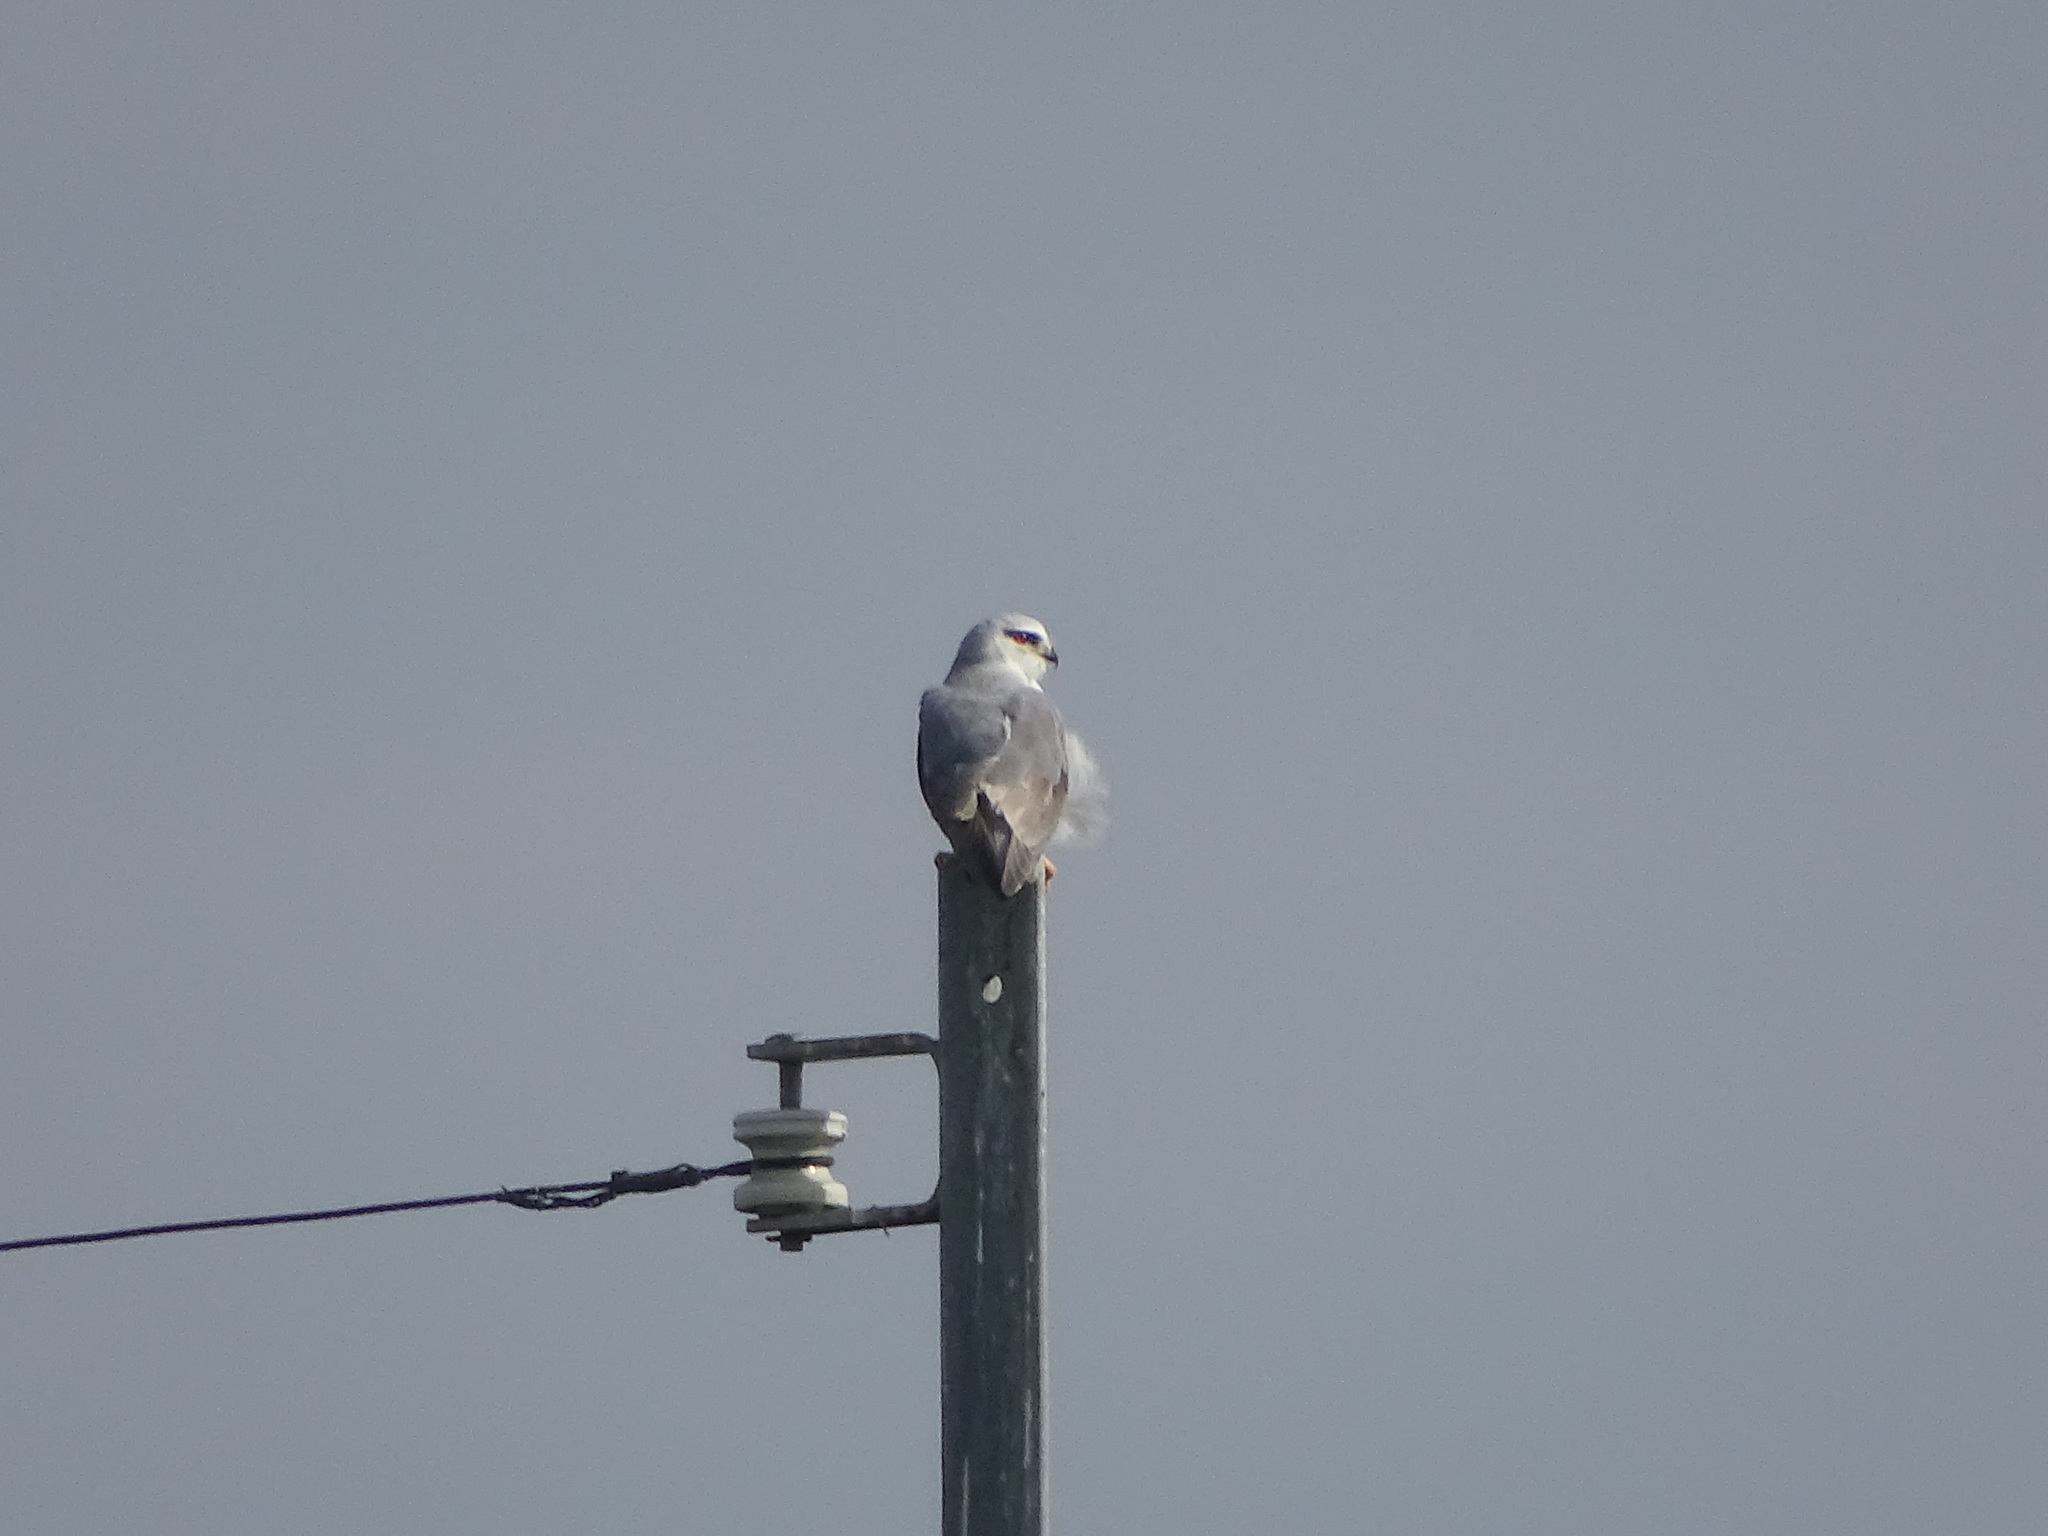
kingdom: Animalia
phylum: Chordata
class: Aves
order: Accipitriformes
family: Accipitridae
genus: Elanus
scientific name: Elanus caeruleus
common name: Black-winged kite
